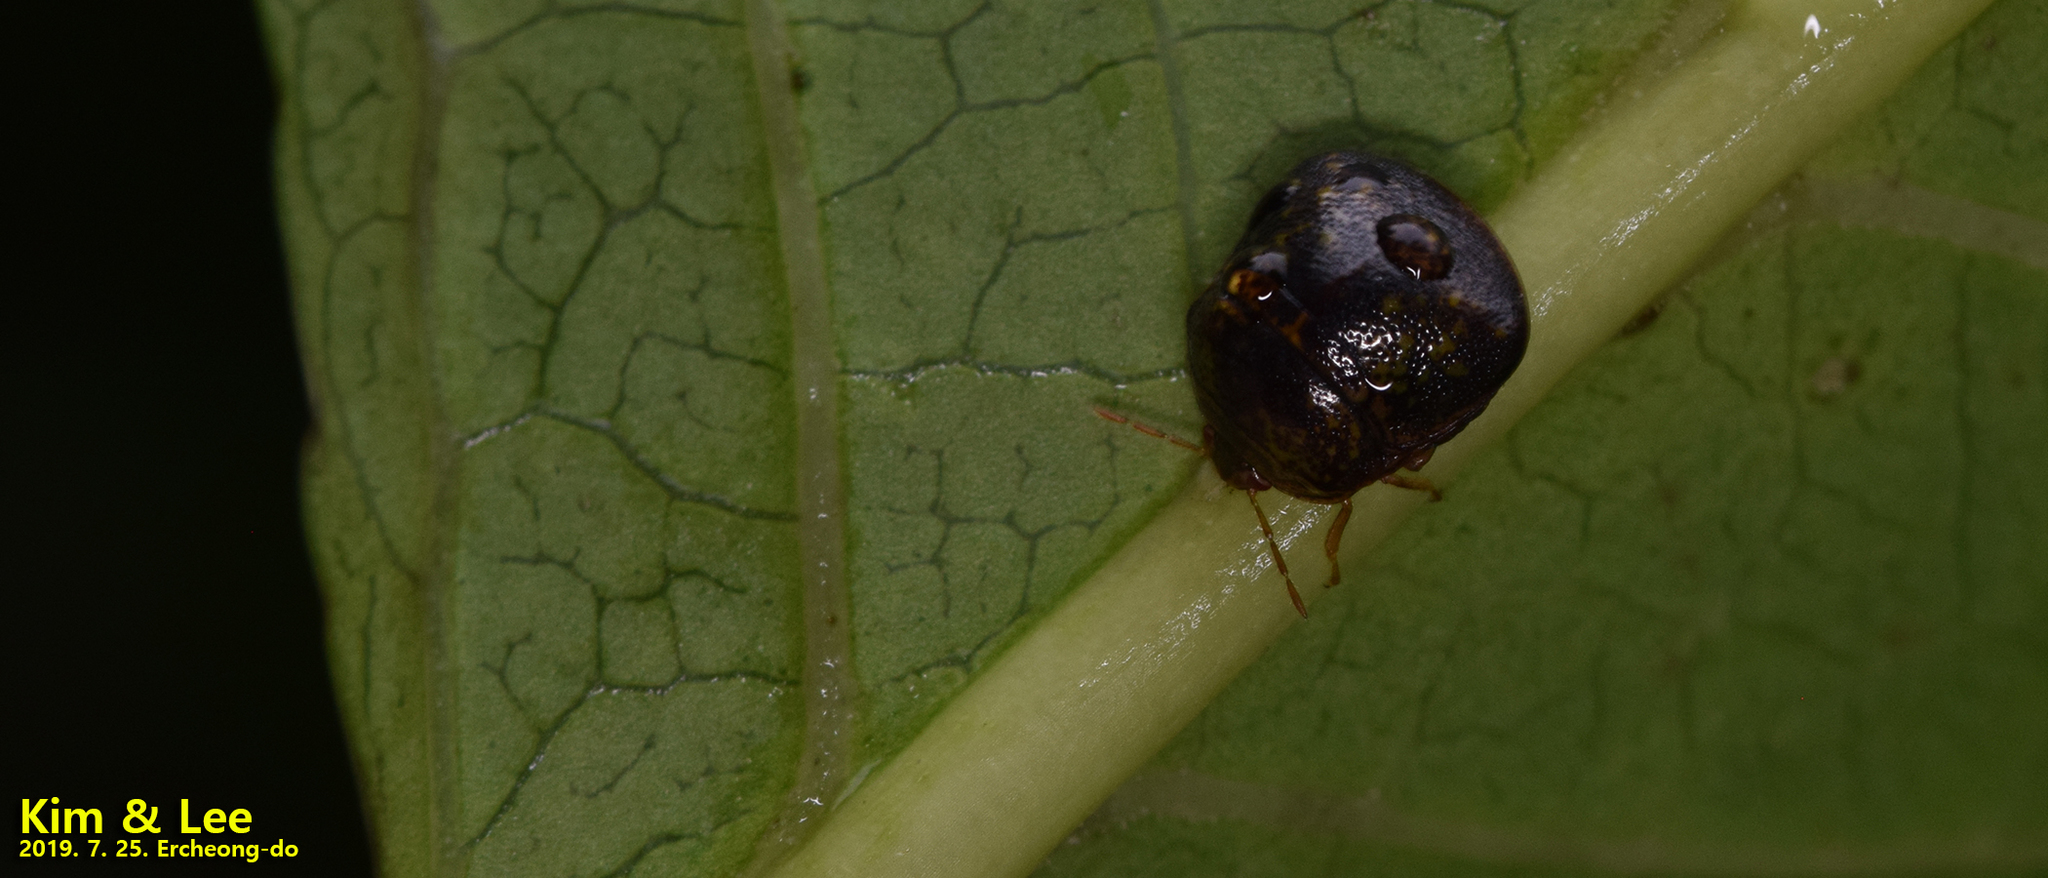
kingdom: Animalia
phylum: Arthropoda
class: Insecta
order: Hemiptera
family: Plataspidae
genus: Megacopta
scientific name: Megacopta cribraria
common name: Bean plataspid
